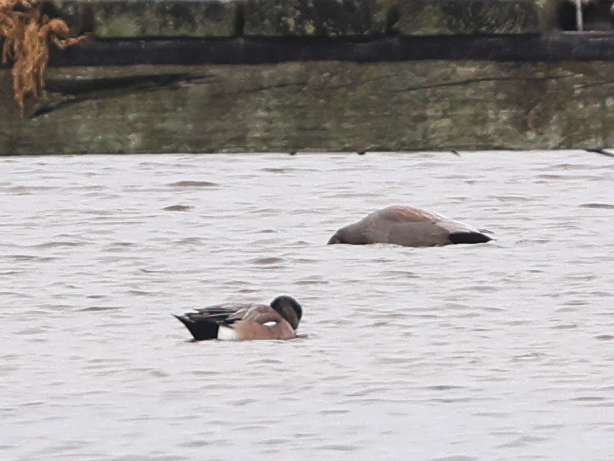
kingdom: Animalia
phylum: Chordata
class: Aves
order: Anseriformes
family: Anatidae
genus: Mareca
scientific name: Mareca americana
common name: American wigeon
